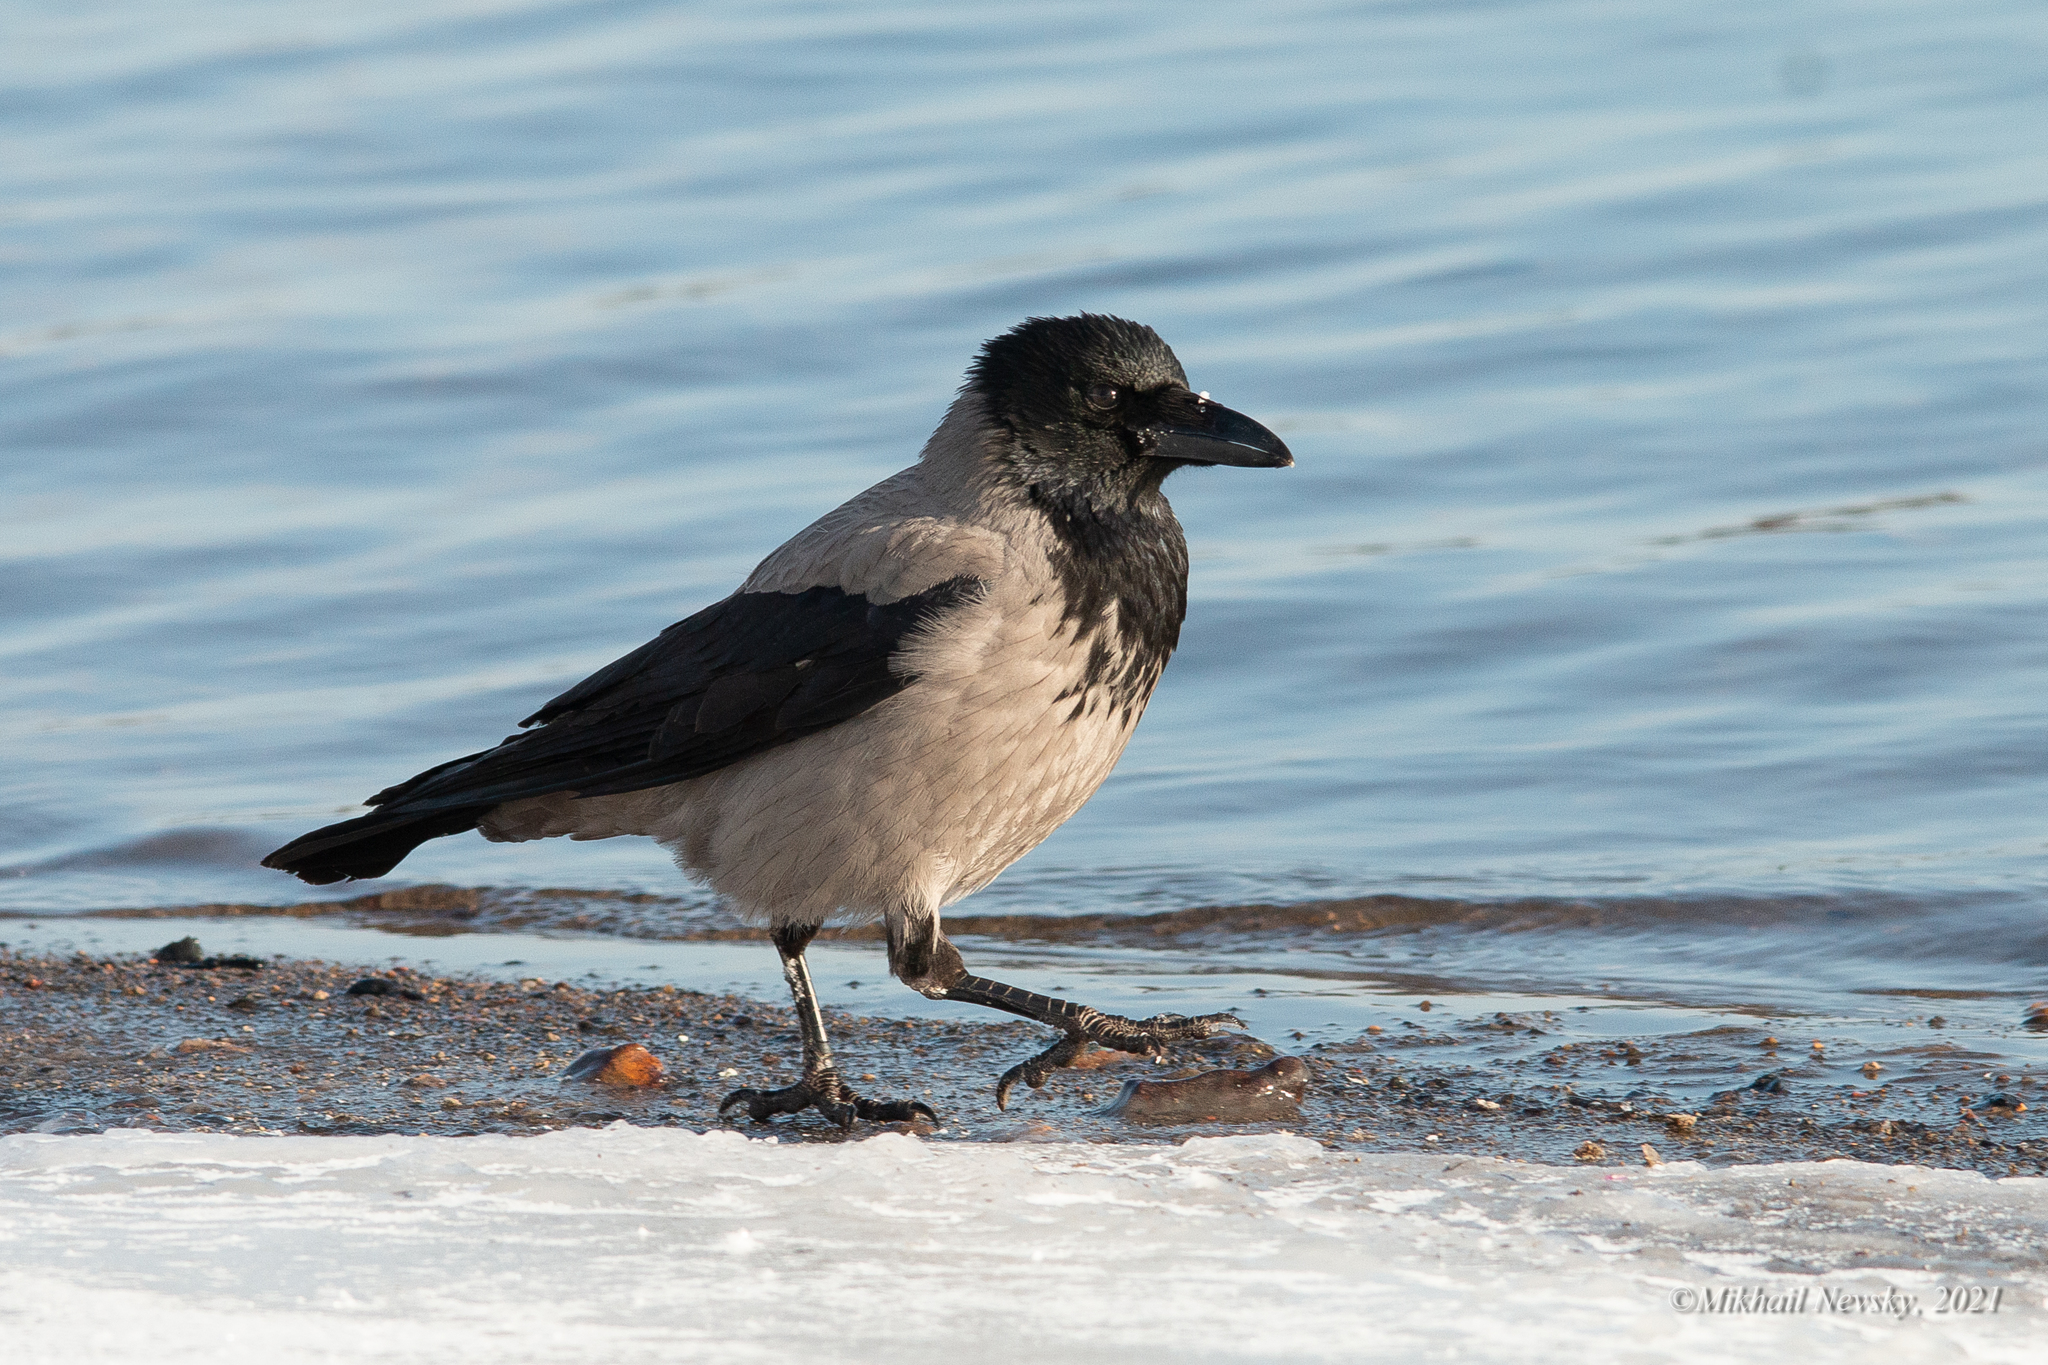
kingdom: Animalia
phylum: Chordata
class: Aves
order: Passeriformes
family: Corvidae
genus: Corvus
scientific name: Corvus cornix
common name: Hooded crow
